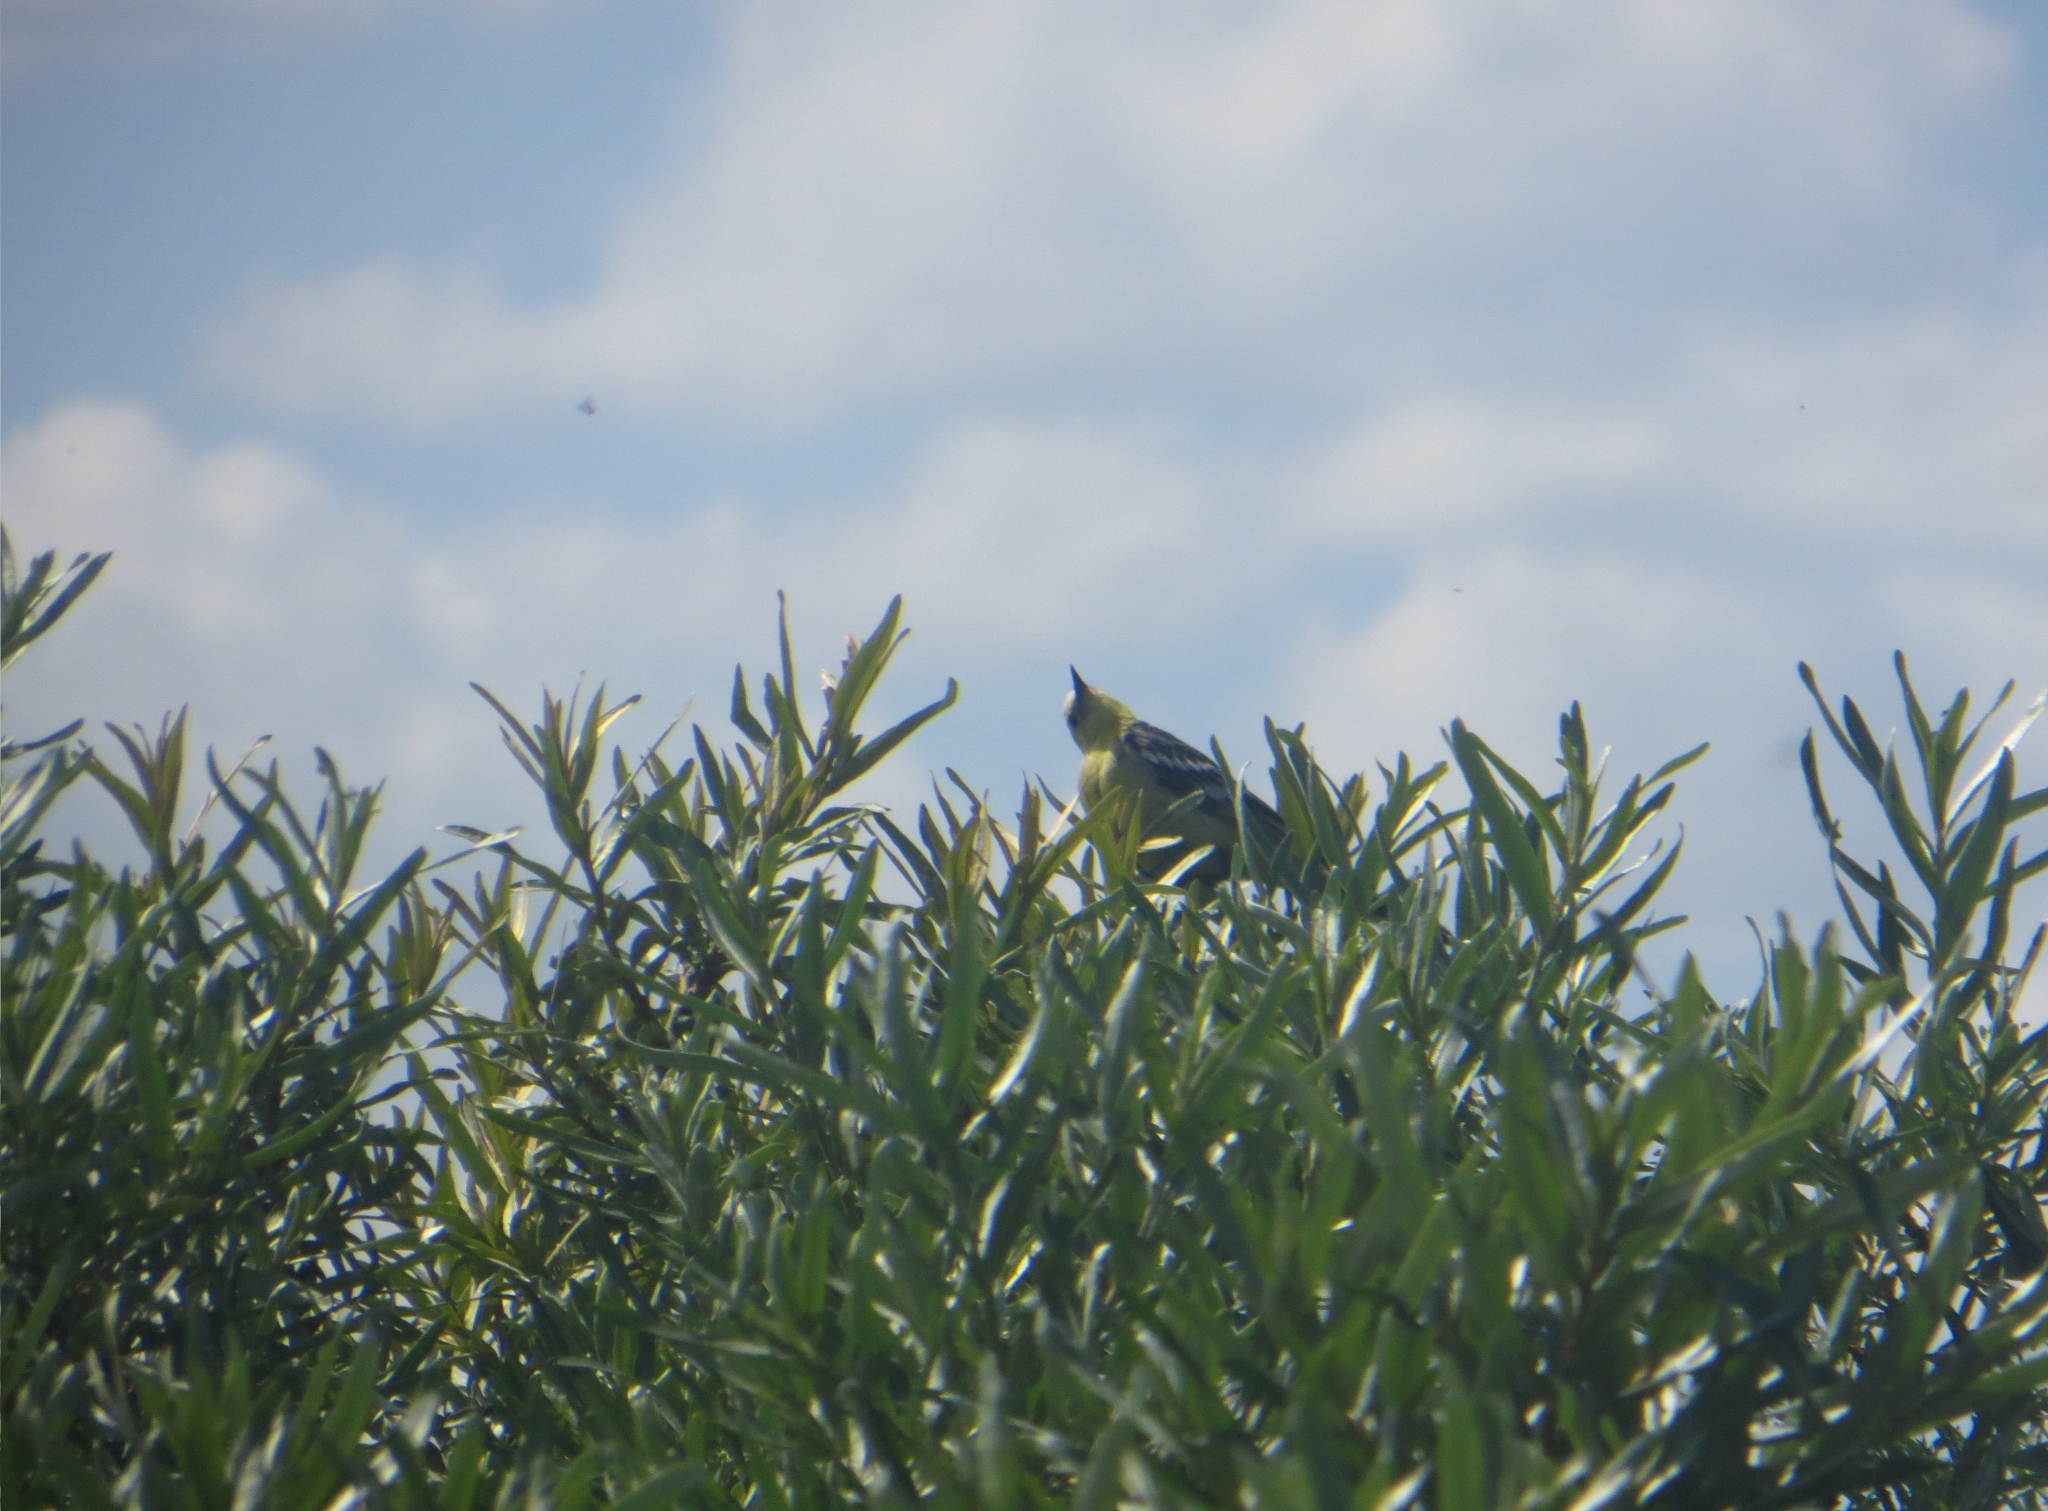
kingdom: Animalia
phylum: Chordata
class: Aves
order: Passeriformes
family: Motacillidae
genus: Motacilla
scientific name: Motacilla citreola
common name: Citrine wagtail
